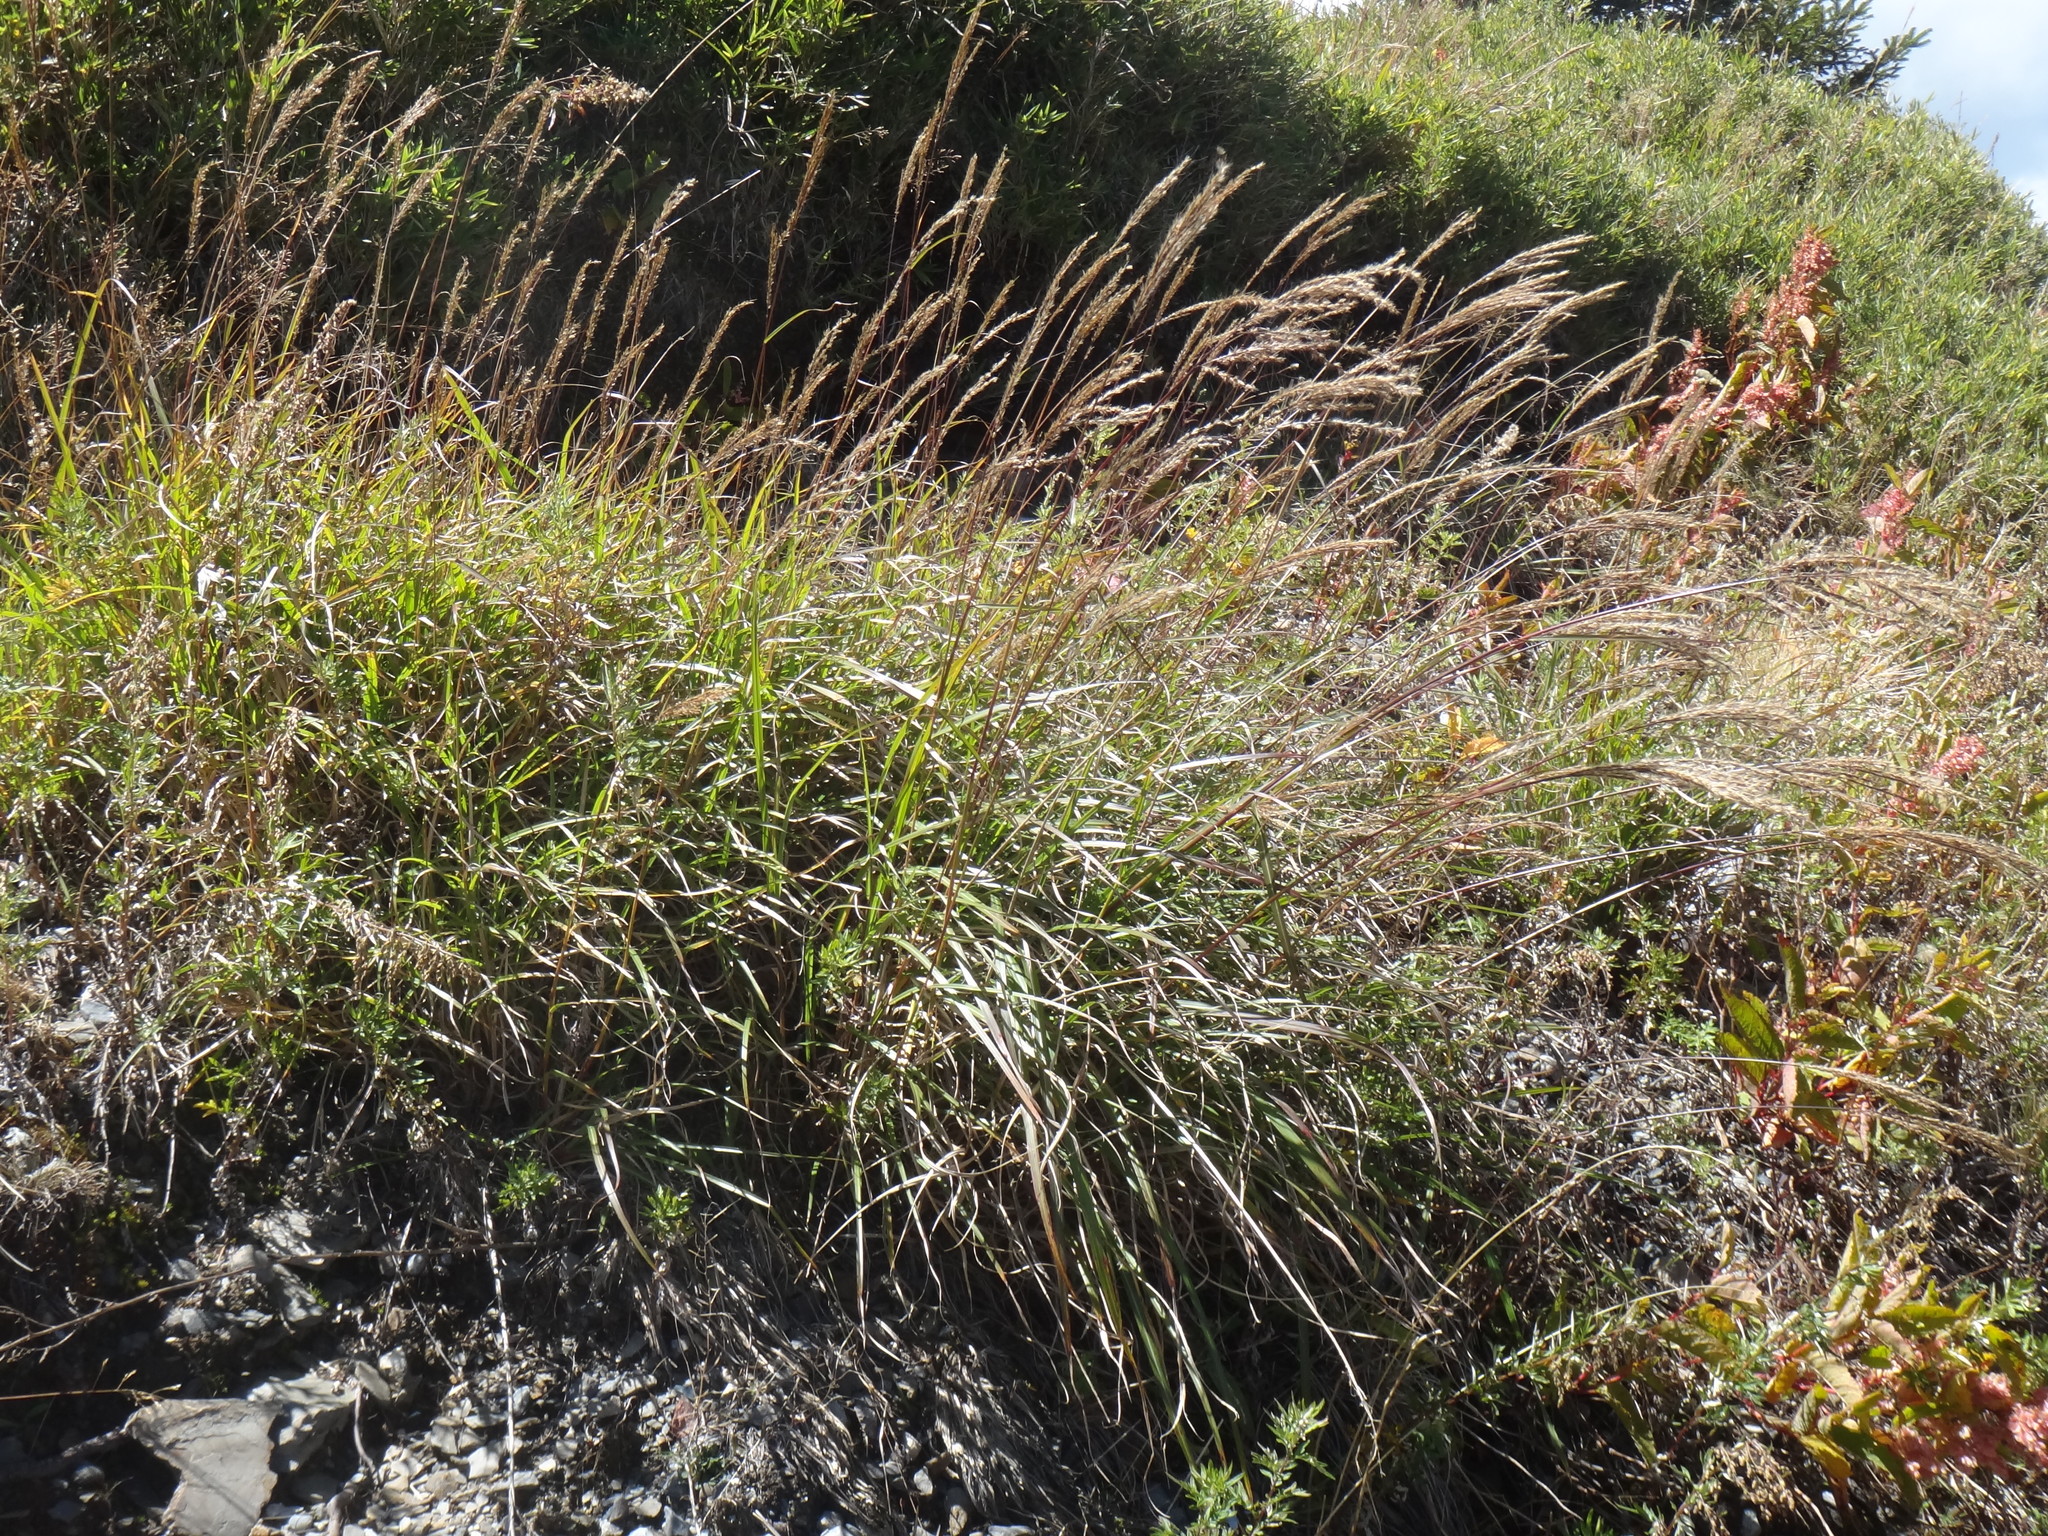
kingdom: Plantae
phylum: Tracheophyta
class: Liliopsida
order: Poales
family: Poaceae
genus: Miscanthus
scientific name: Miscanthus sinensis
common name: Chinese silvergrass
